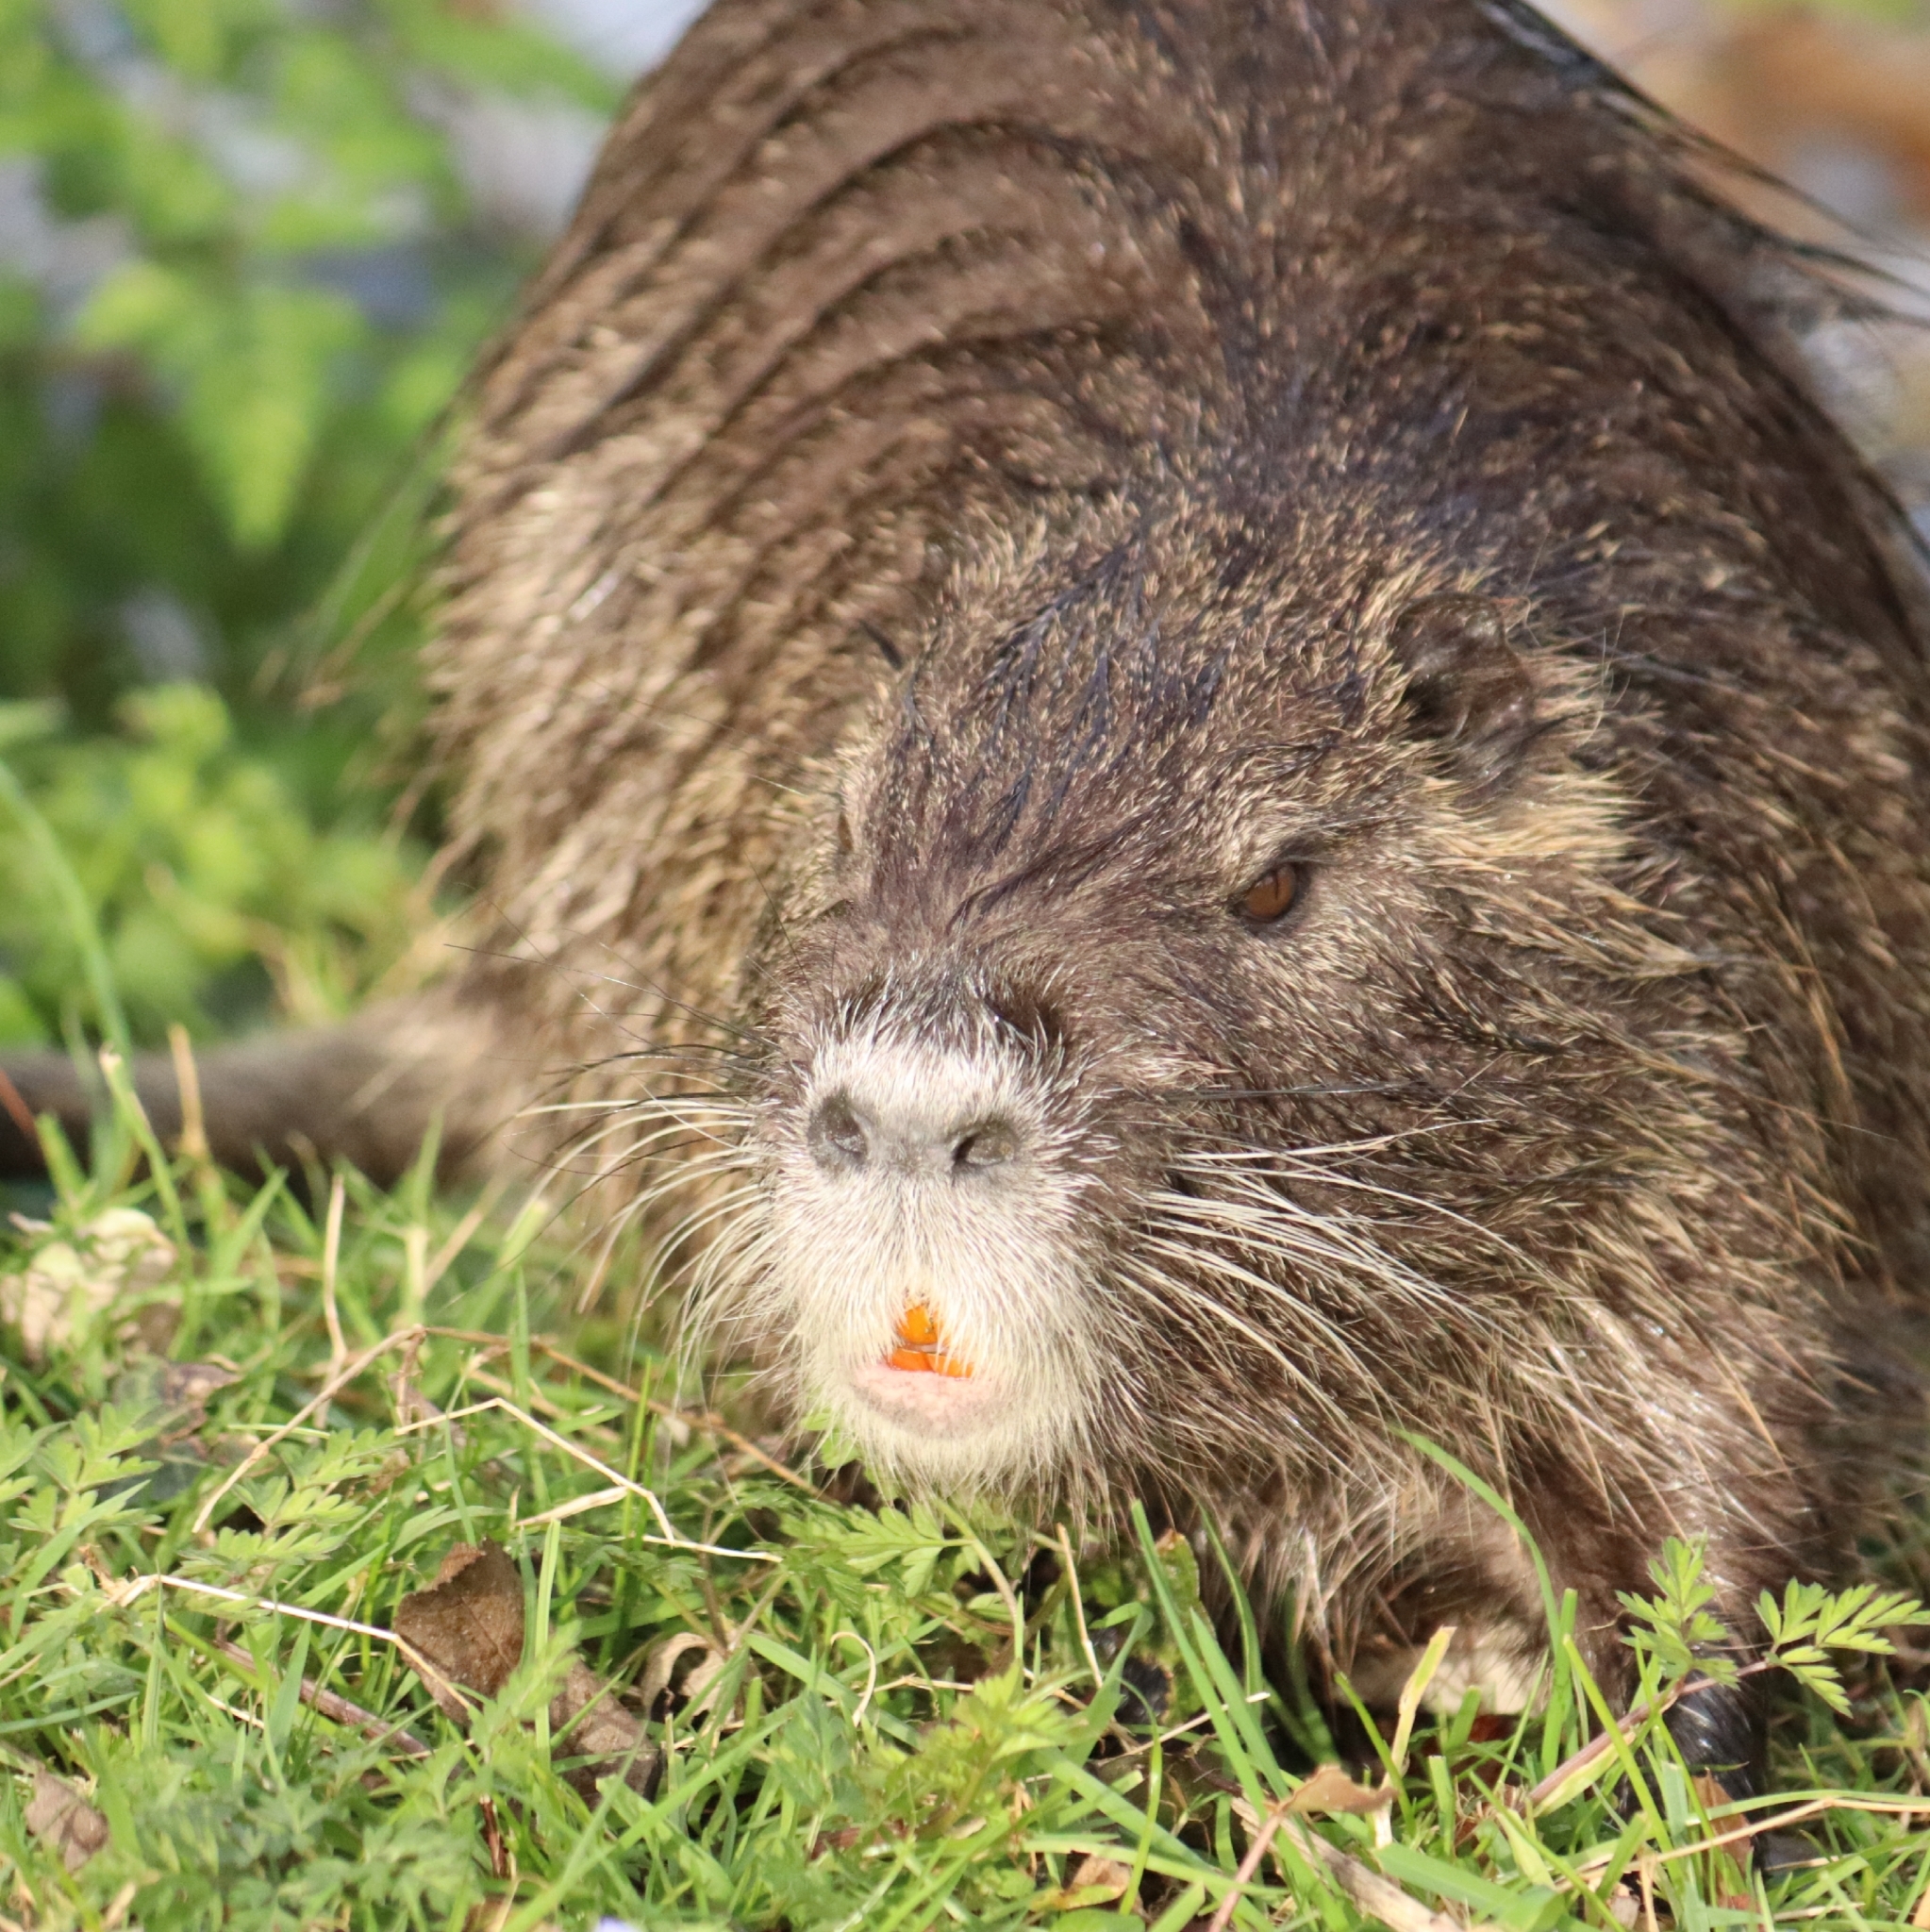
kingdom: Animalia
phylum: Chordata
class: Mammalia
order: Rodentia
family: Myocastoridae
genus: Myocastor
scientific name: Myocastor coypus
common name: Coypu
